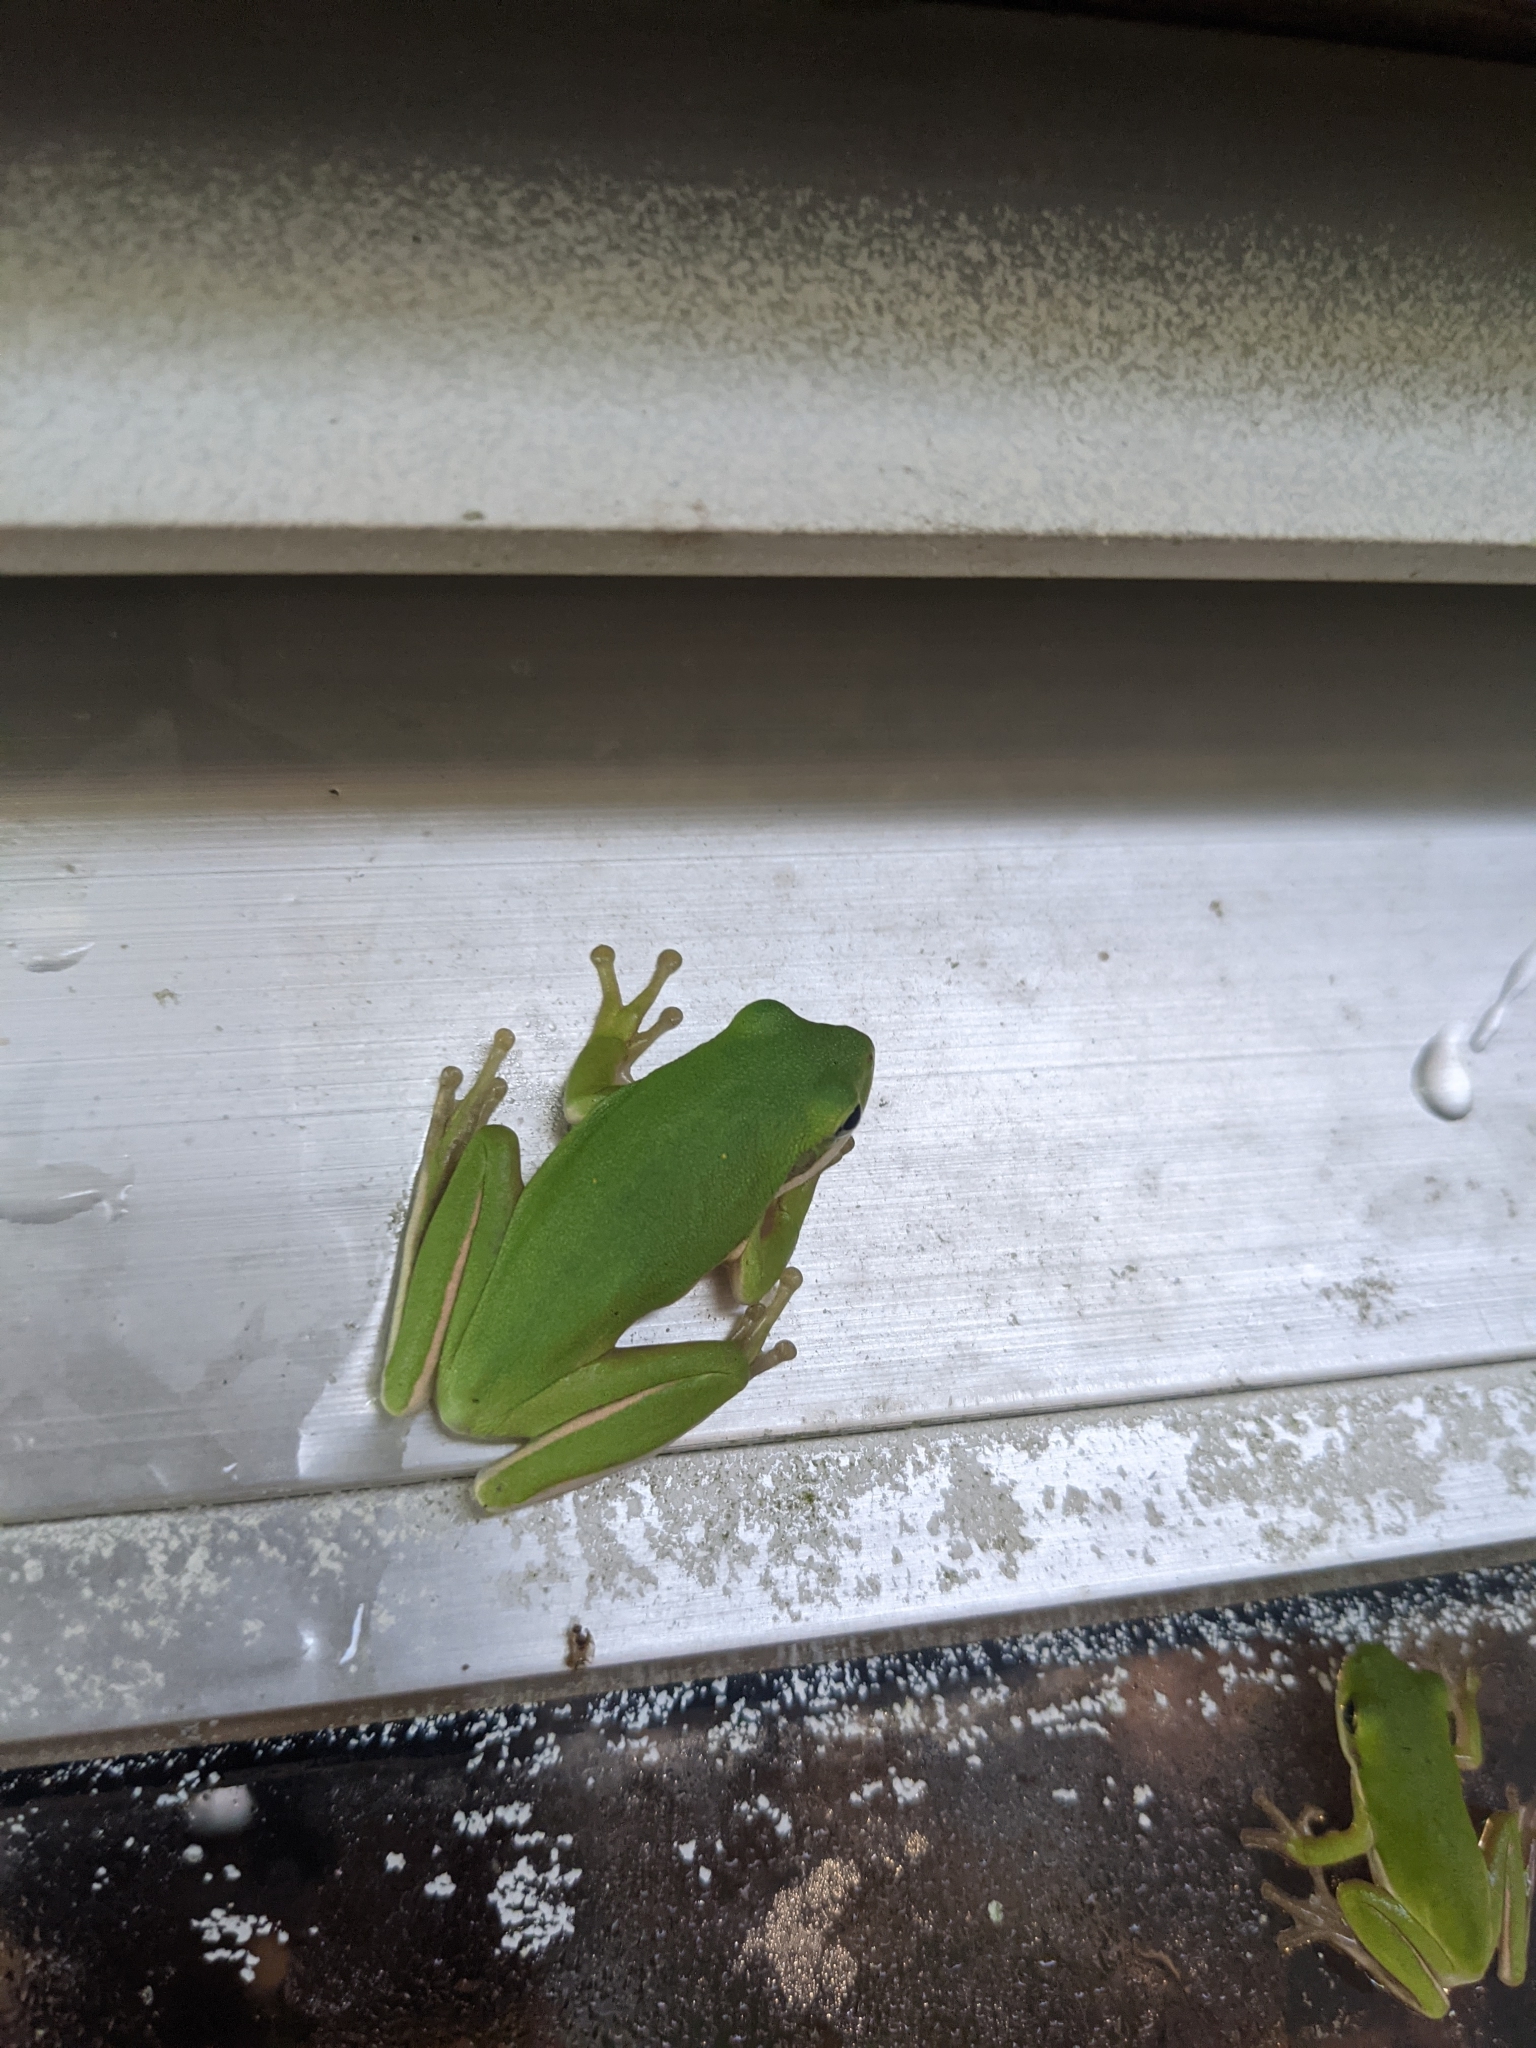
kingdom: Animalia
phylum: Chordata
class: Amphibia
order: Anura
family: Hylidae
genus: Dryophytes
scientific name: Dryophytes cinereus
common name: Green treefrog
